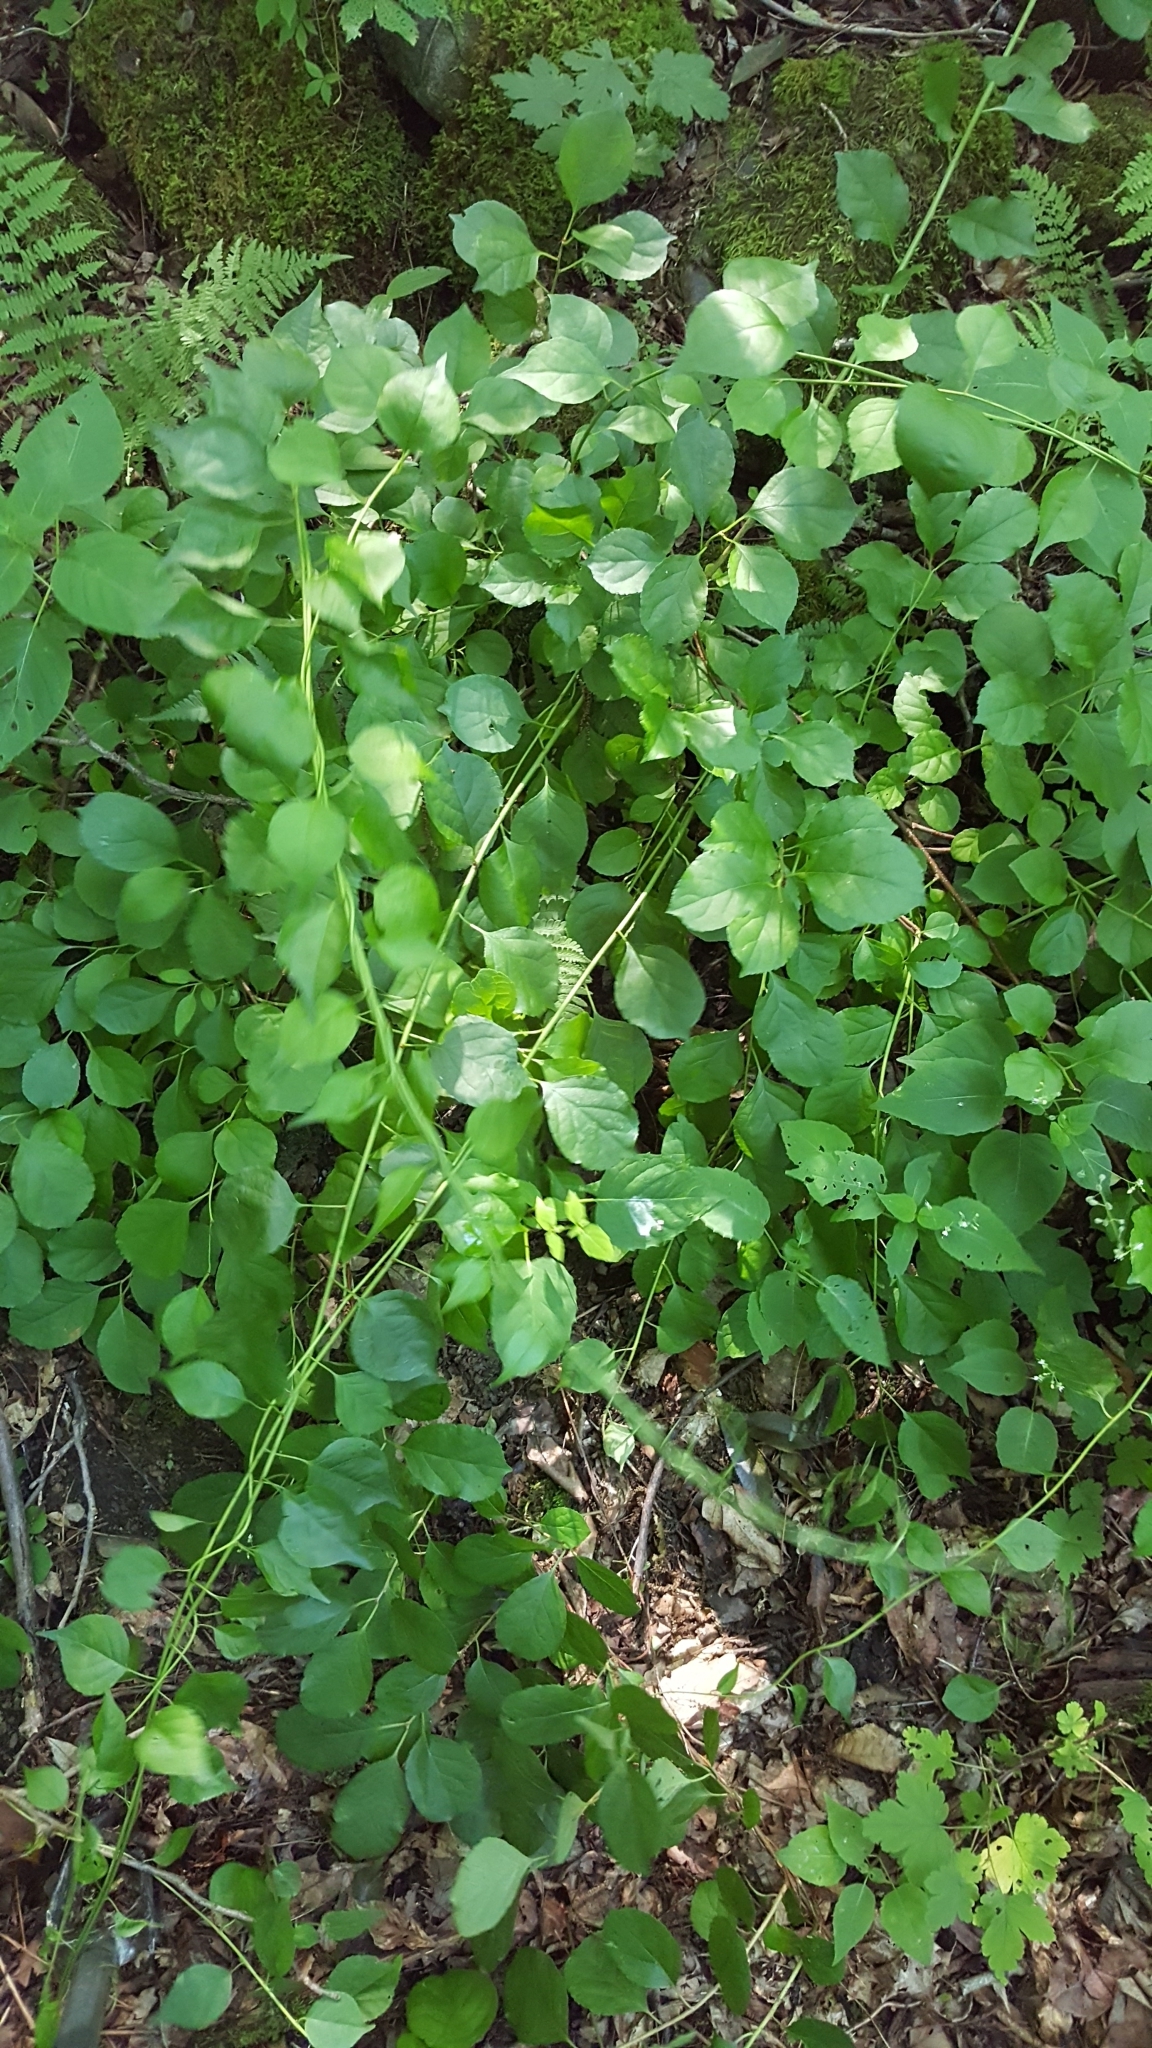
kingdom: Plantae
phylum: Tracheophyta
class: Magnoliopsida
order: Celastrales
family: Celastraceae
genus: Celastrus
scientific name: Celastrus orbiculatus
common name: Oriental bittersweet
